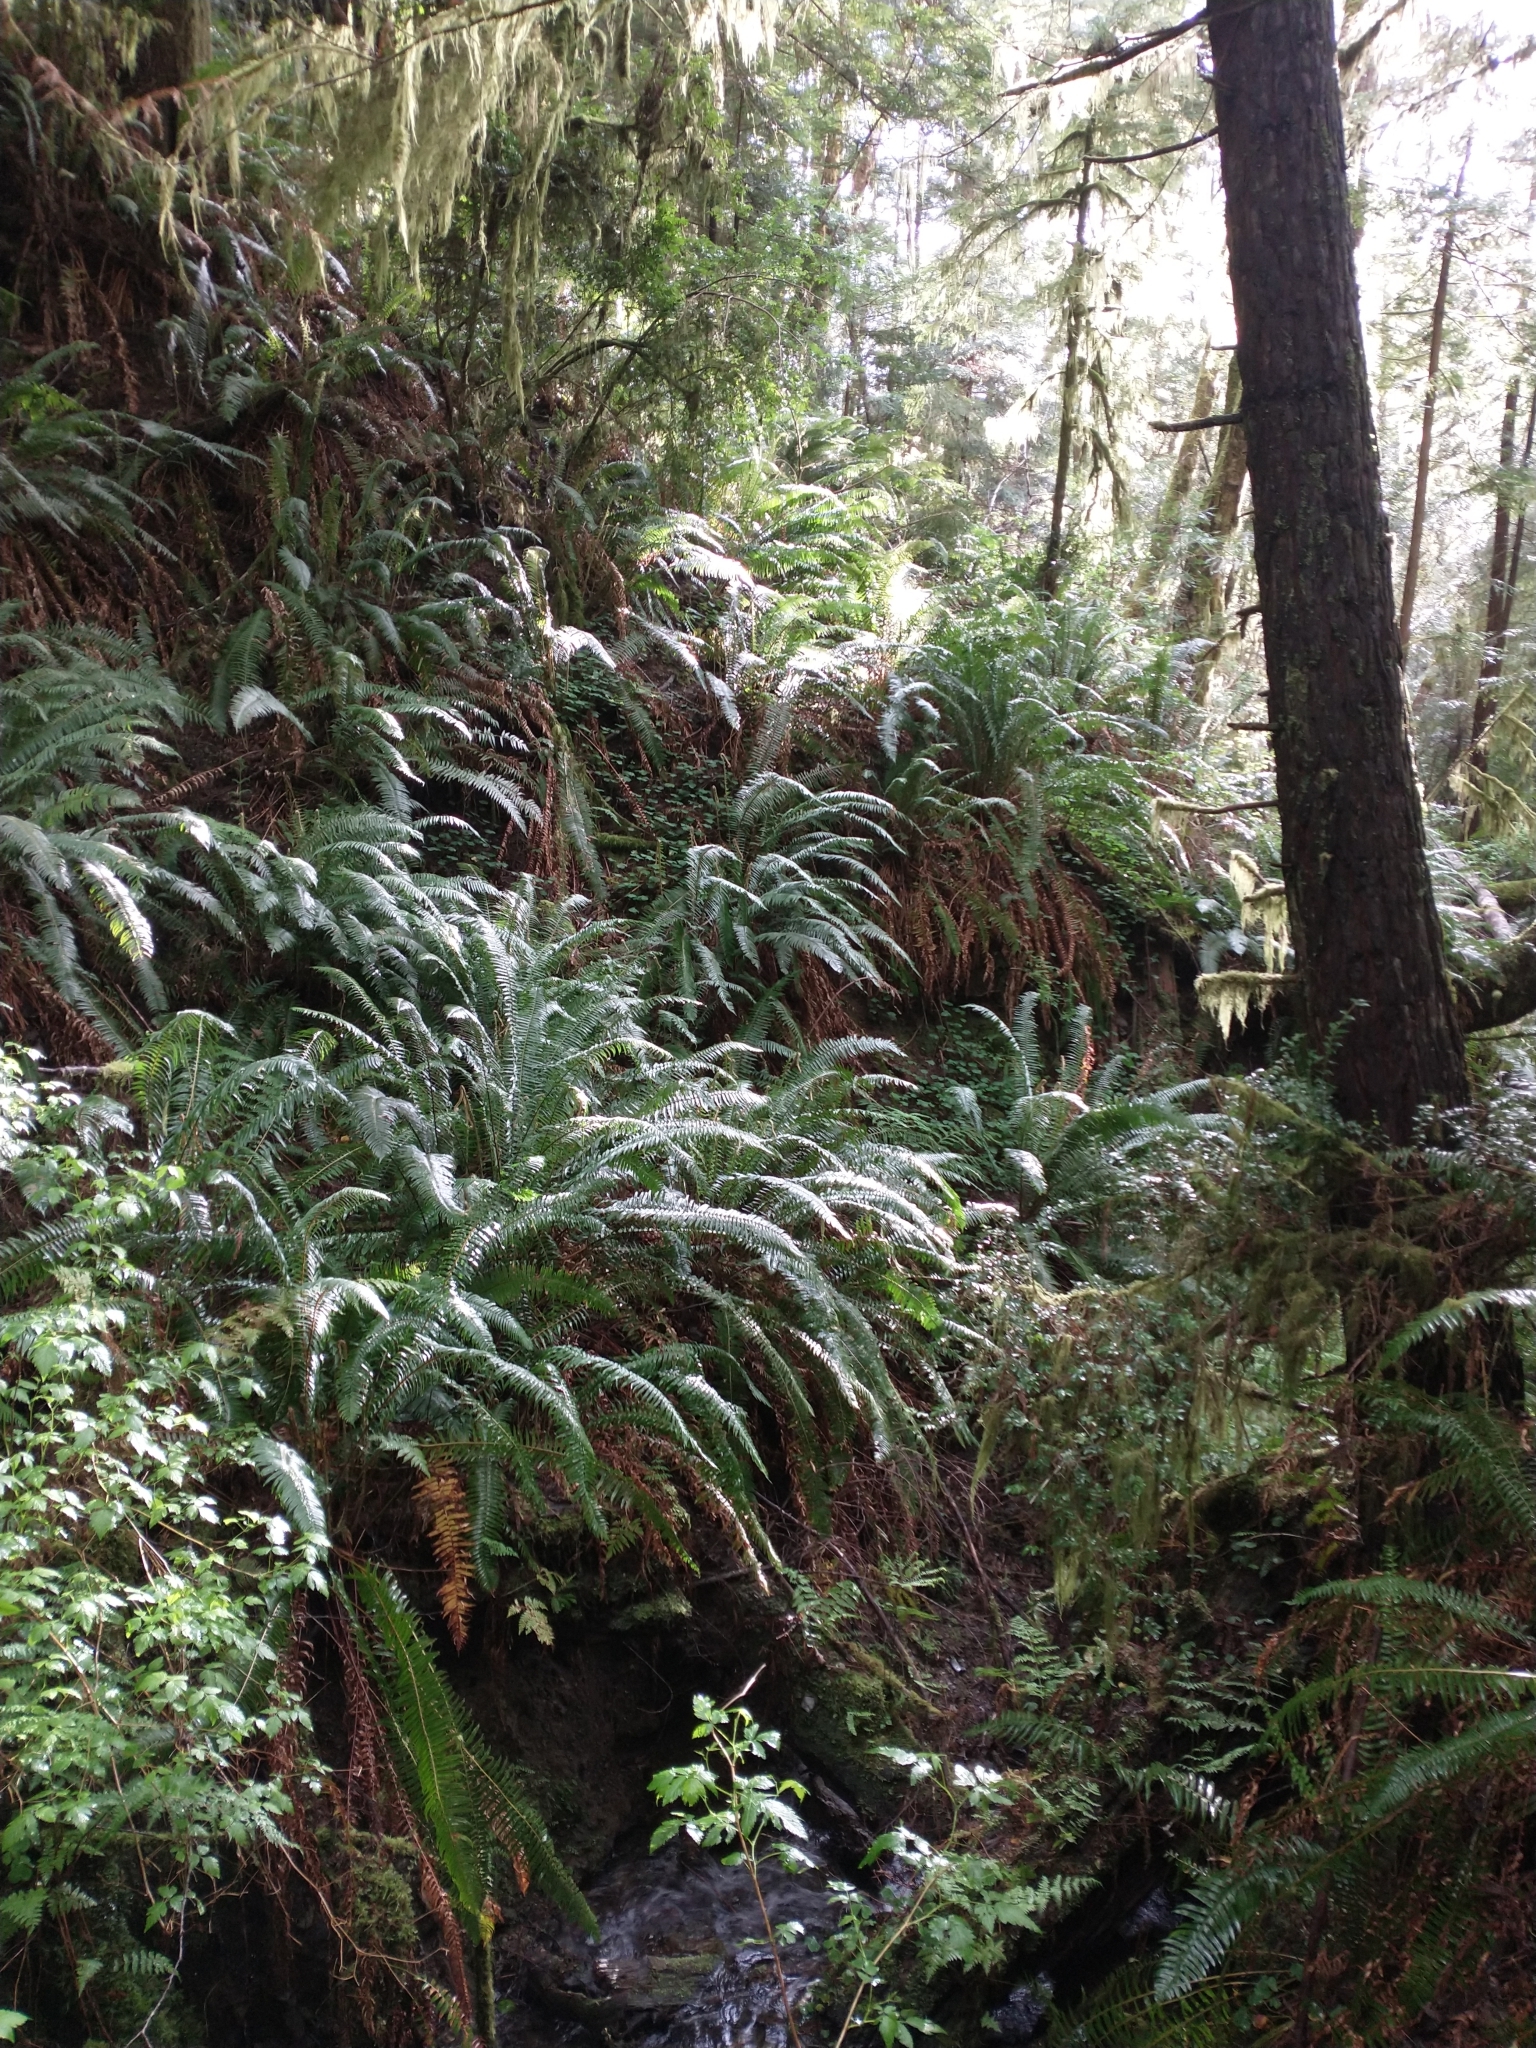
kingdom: Plantae
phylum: Tracheophyta
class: Polypodiopsida
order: Polypodiales
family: Dryopteridaceae
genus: Polystichum
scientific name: Polystichum munitum
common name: Western sword-fern
